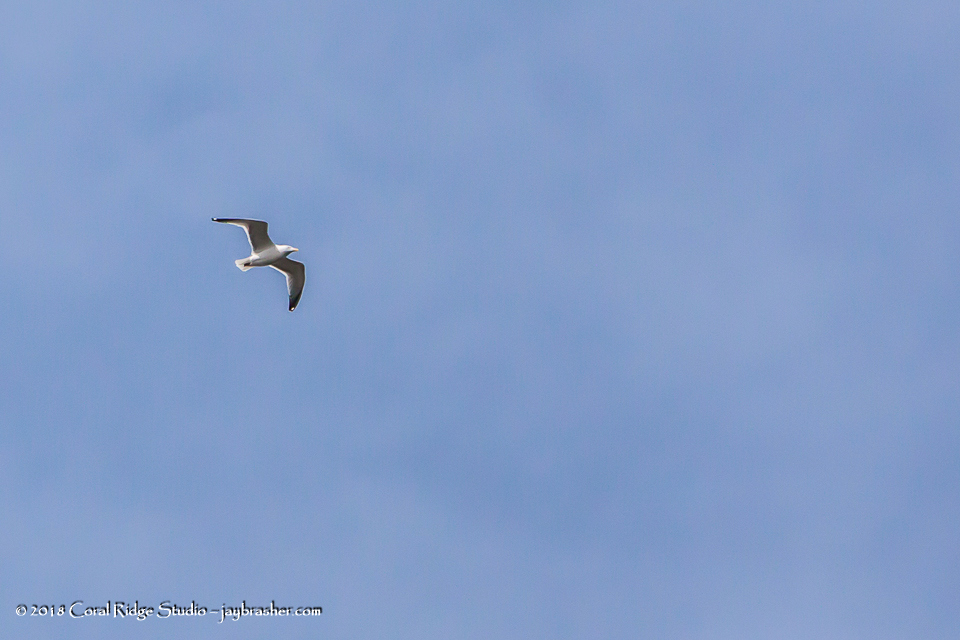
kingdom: Animalia
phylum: Chordata
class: Aves
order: Charadriiformes
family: Laridae
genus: Larus
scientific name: Larus argentatus
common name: Herring gull
